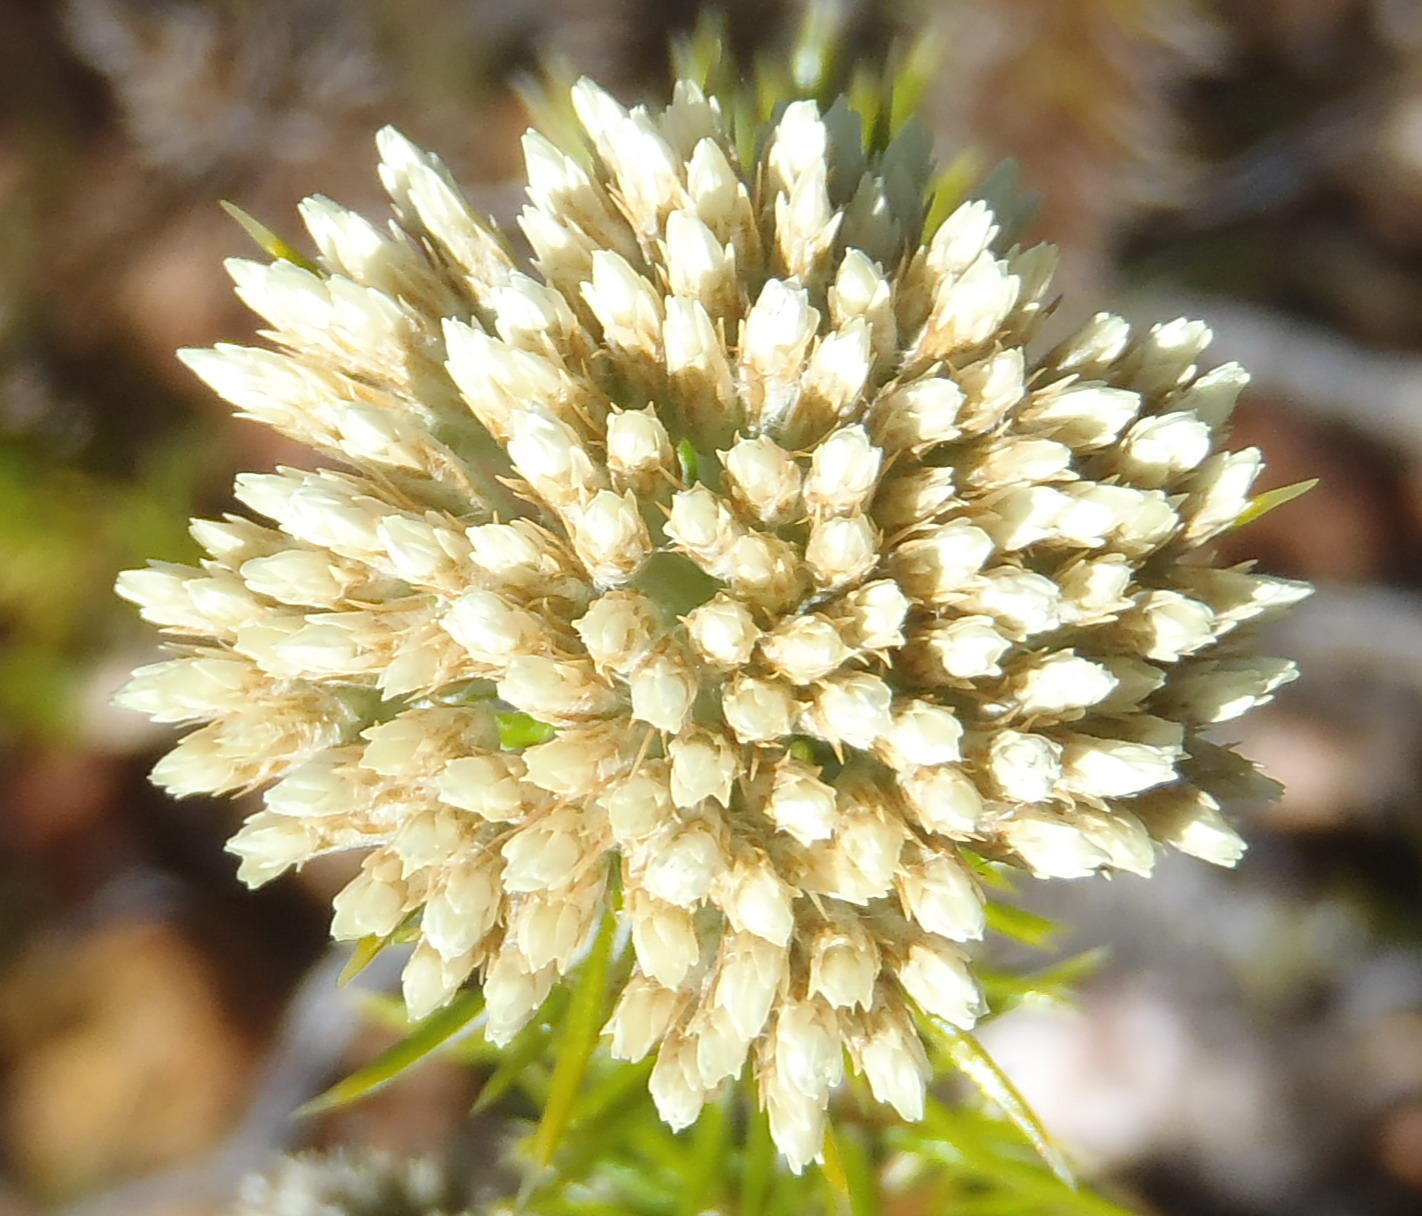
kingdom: Plantae
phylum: Tracheophyta
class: Magnoliopsida
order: Asterales
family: Asteraceae
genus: Metalasia
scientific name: Metalasia acuta
